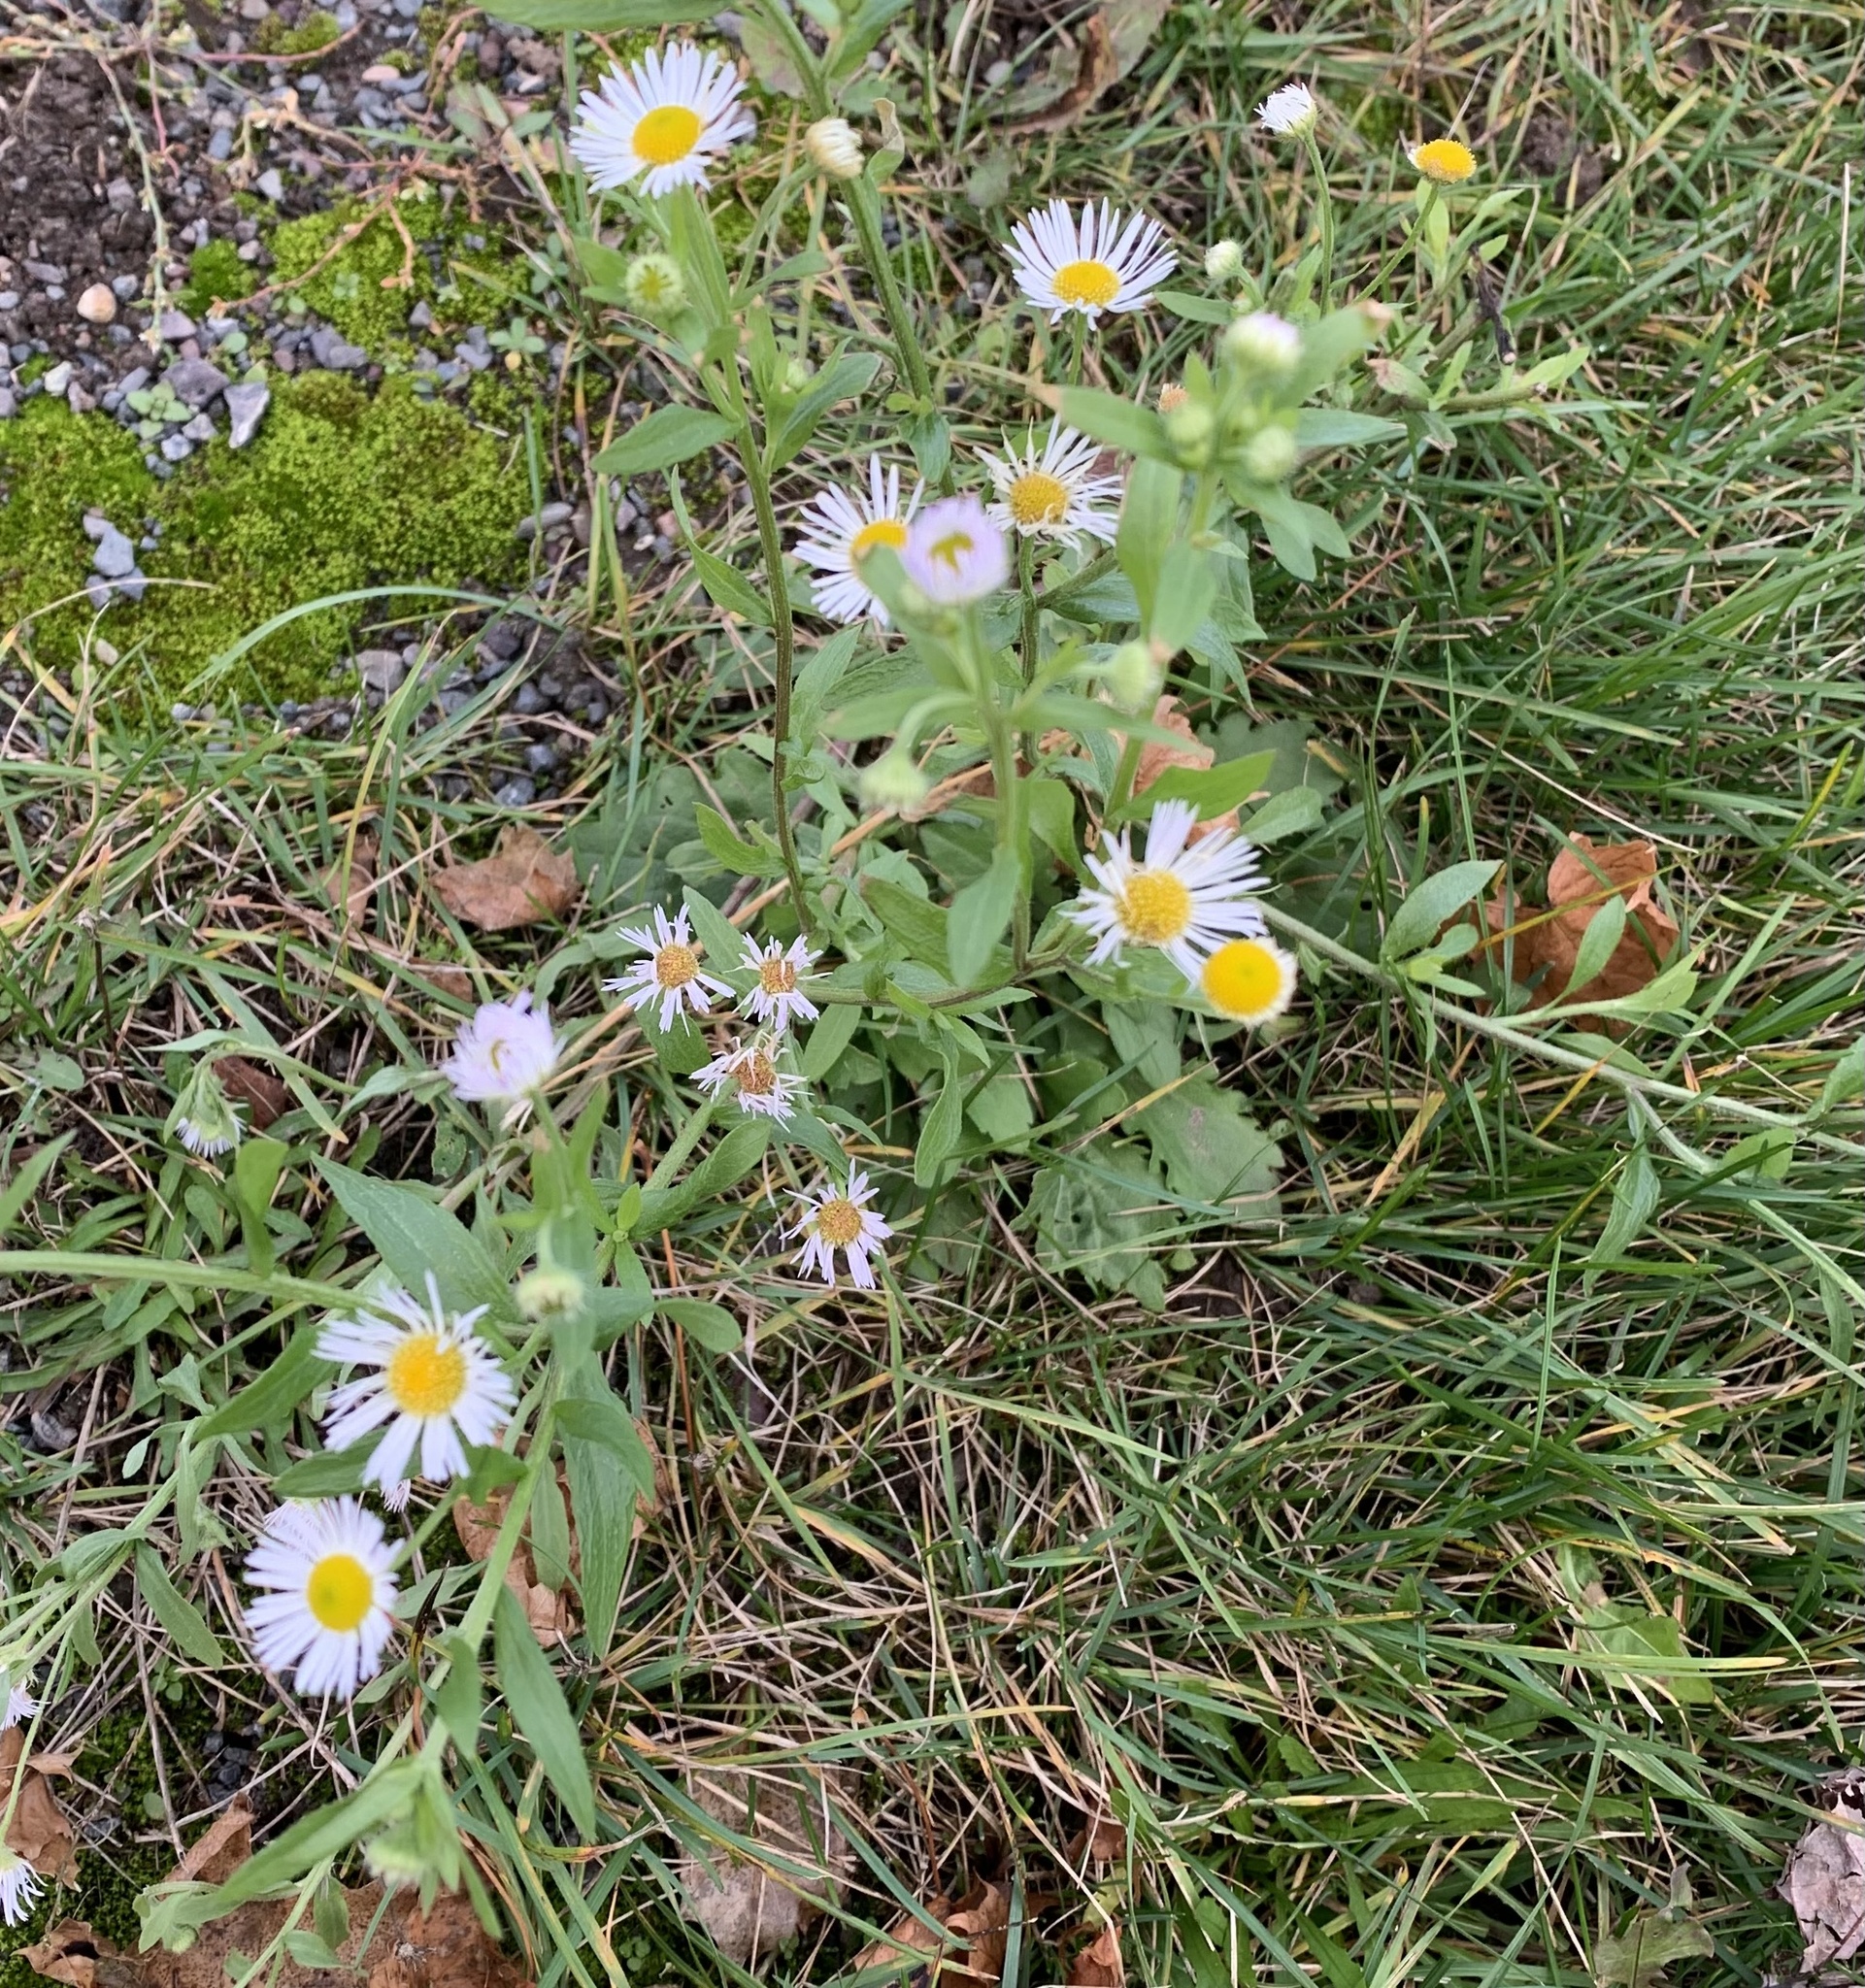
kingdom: Plantae
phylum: Tracheophyta
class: Magnoliopsida
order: Asterales
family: Asteraceae
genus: Erigeron
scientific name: Erigeron annuus
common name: Tall fleabane
